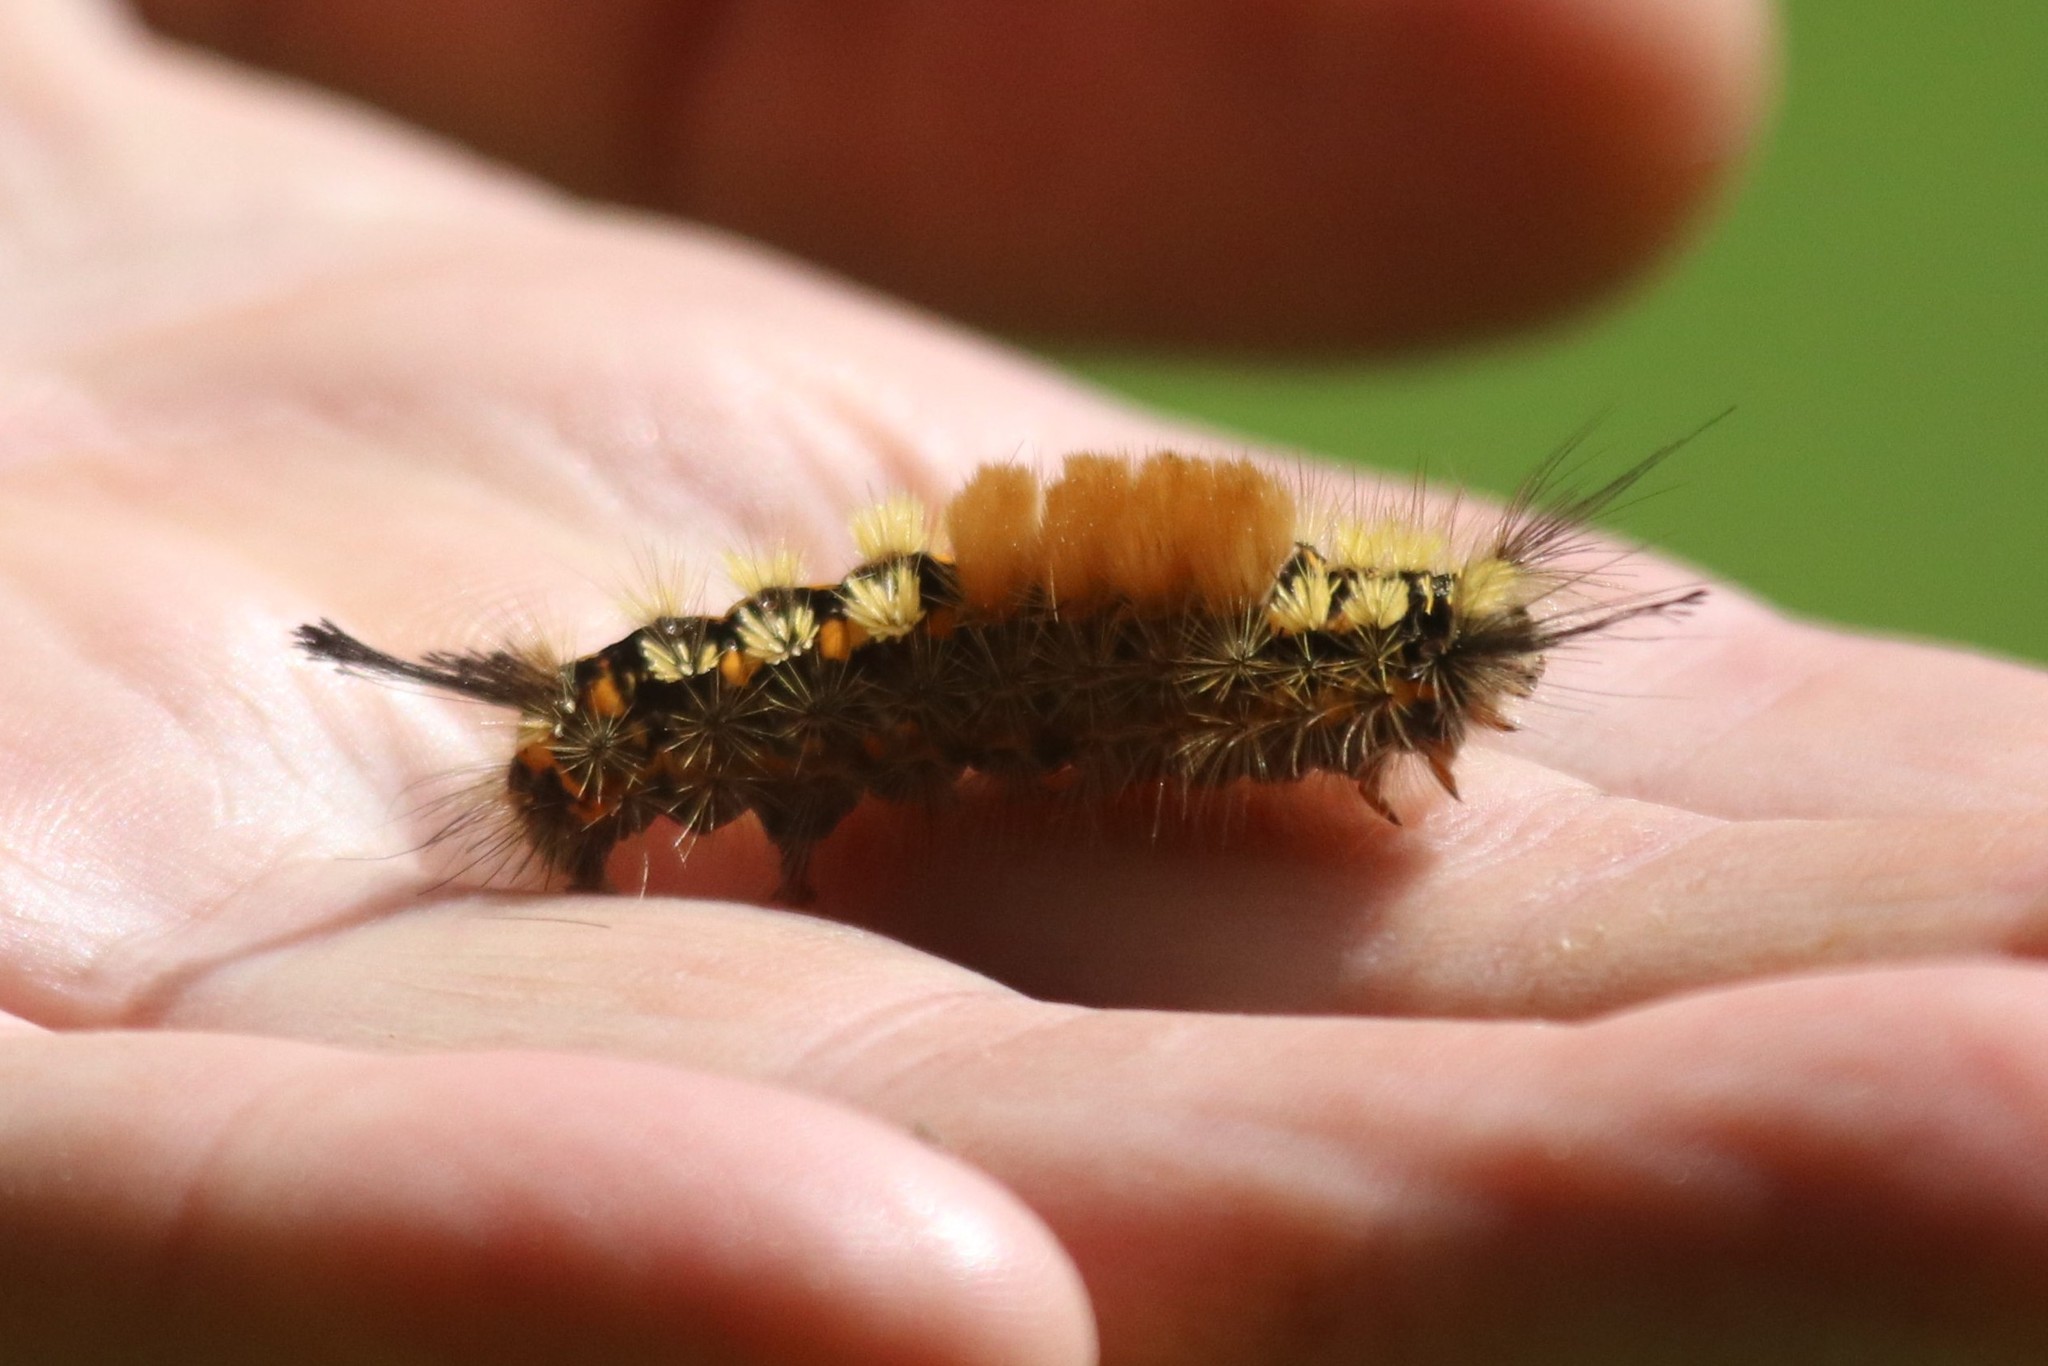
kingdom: Animalia
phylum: Arthropoda
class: Insecta
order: Lepidoptera
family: Erebidae
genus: Orgyia
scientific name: Orgyia recens
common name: Scarce vapourer
